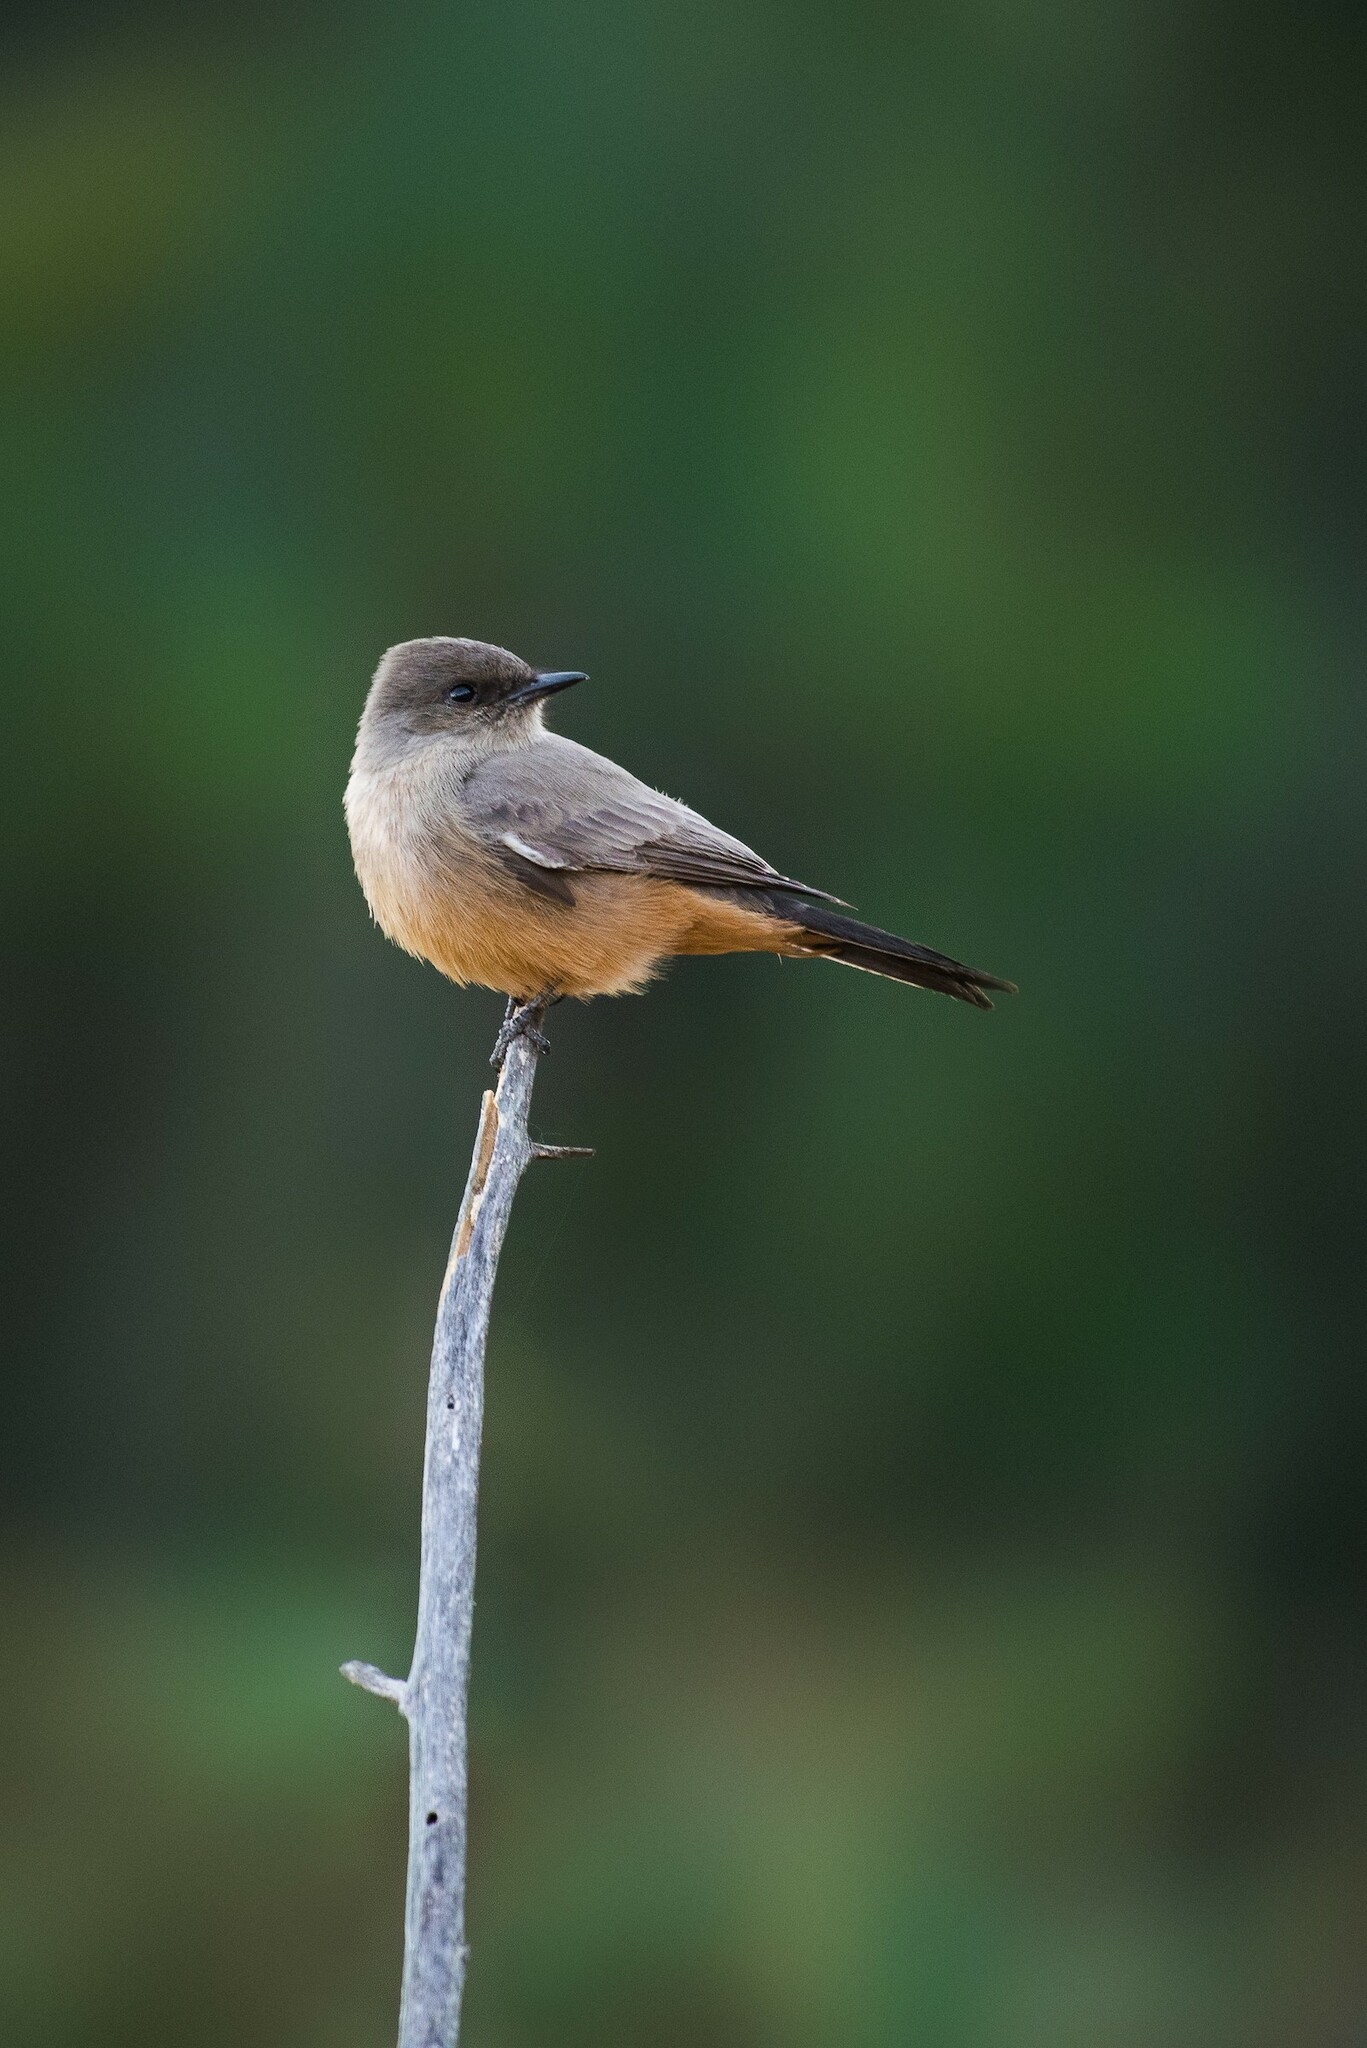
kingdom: Animalia
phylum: Chordata
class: Aves
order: Passeriformes
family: Tyrannidae
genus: Sayornis
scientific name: Sayornis saya
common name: Say's phoebe
